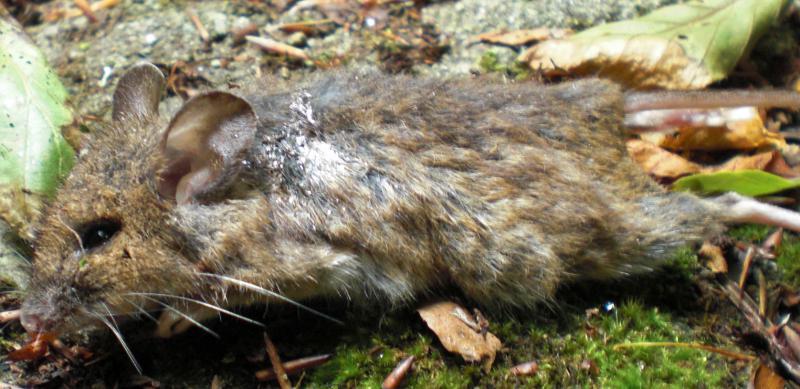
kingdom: Animalia
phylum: Chordata
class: Mammalia
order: Rodentia
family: Muridae
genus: Apodemus
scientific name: Apodemus sylvaticus
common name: Wood mouse
